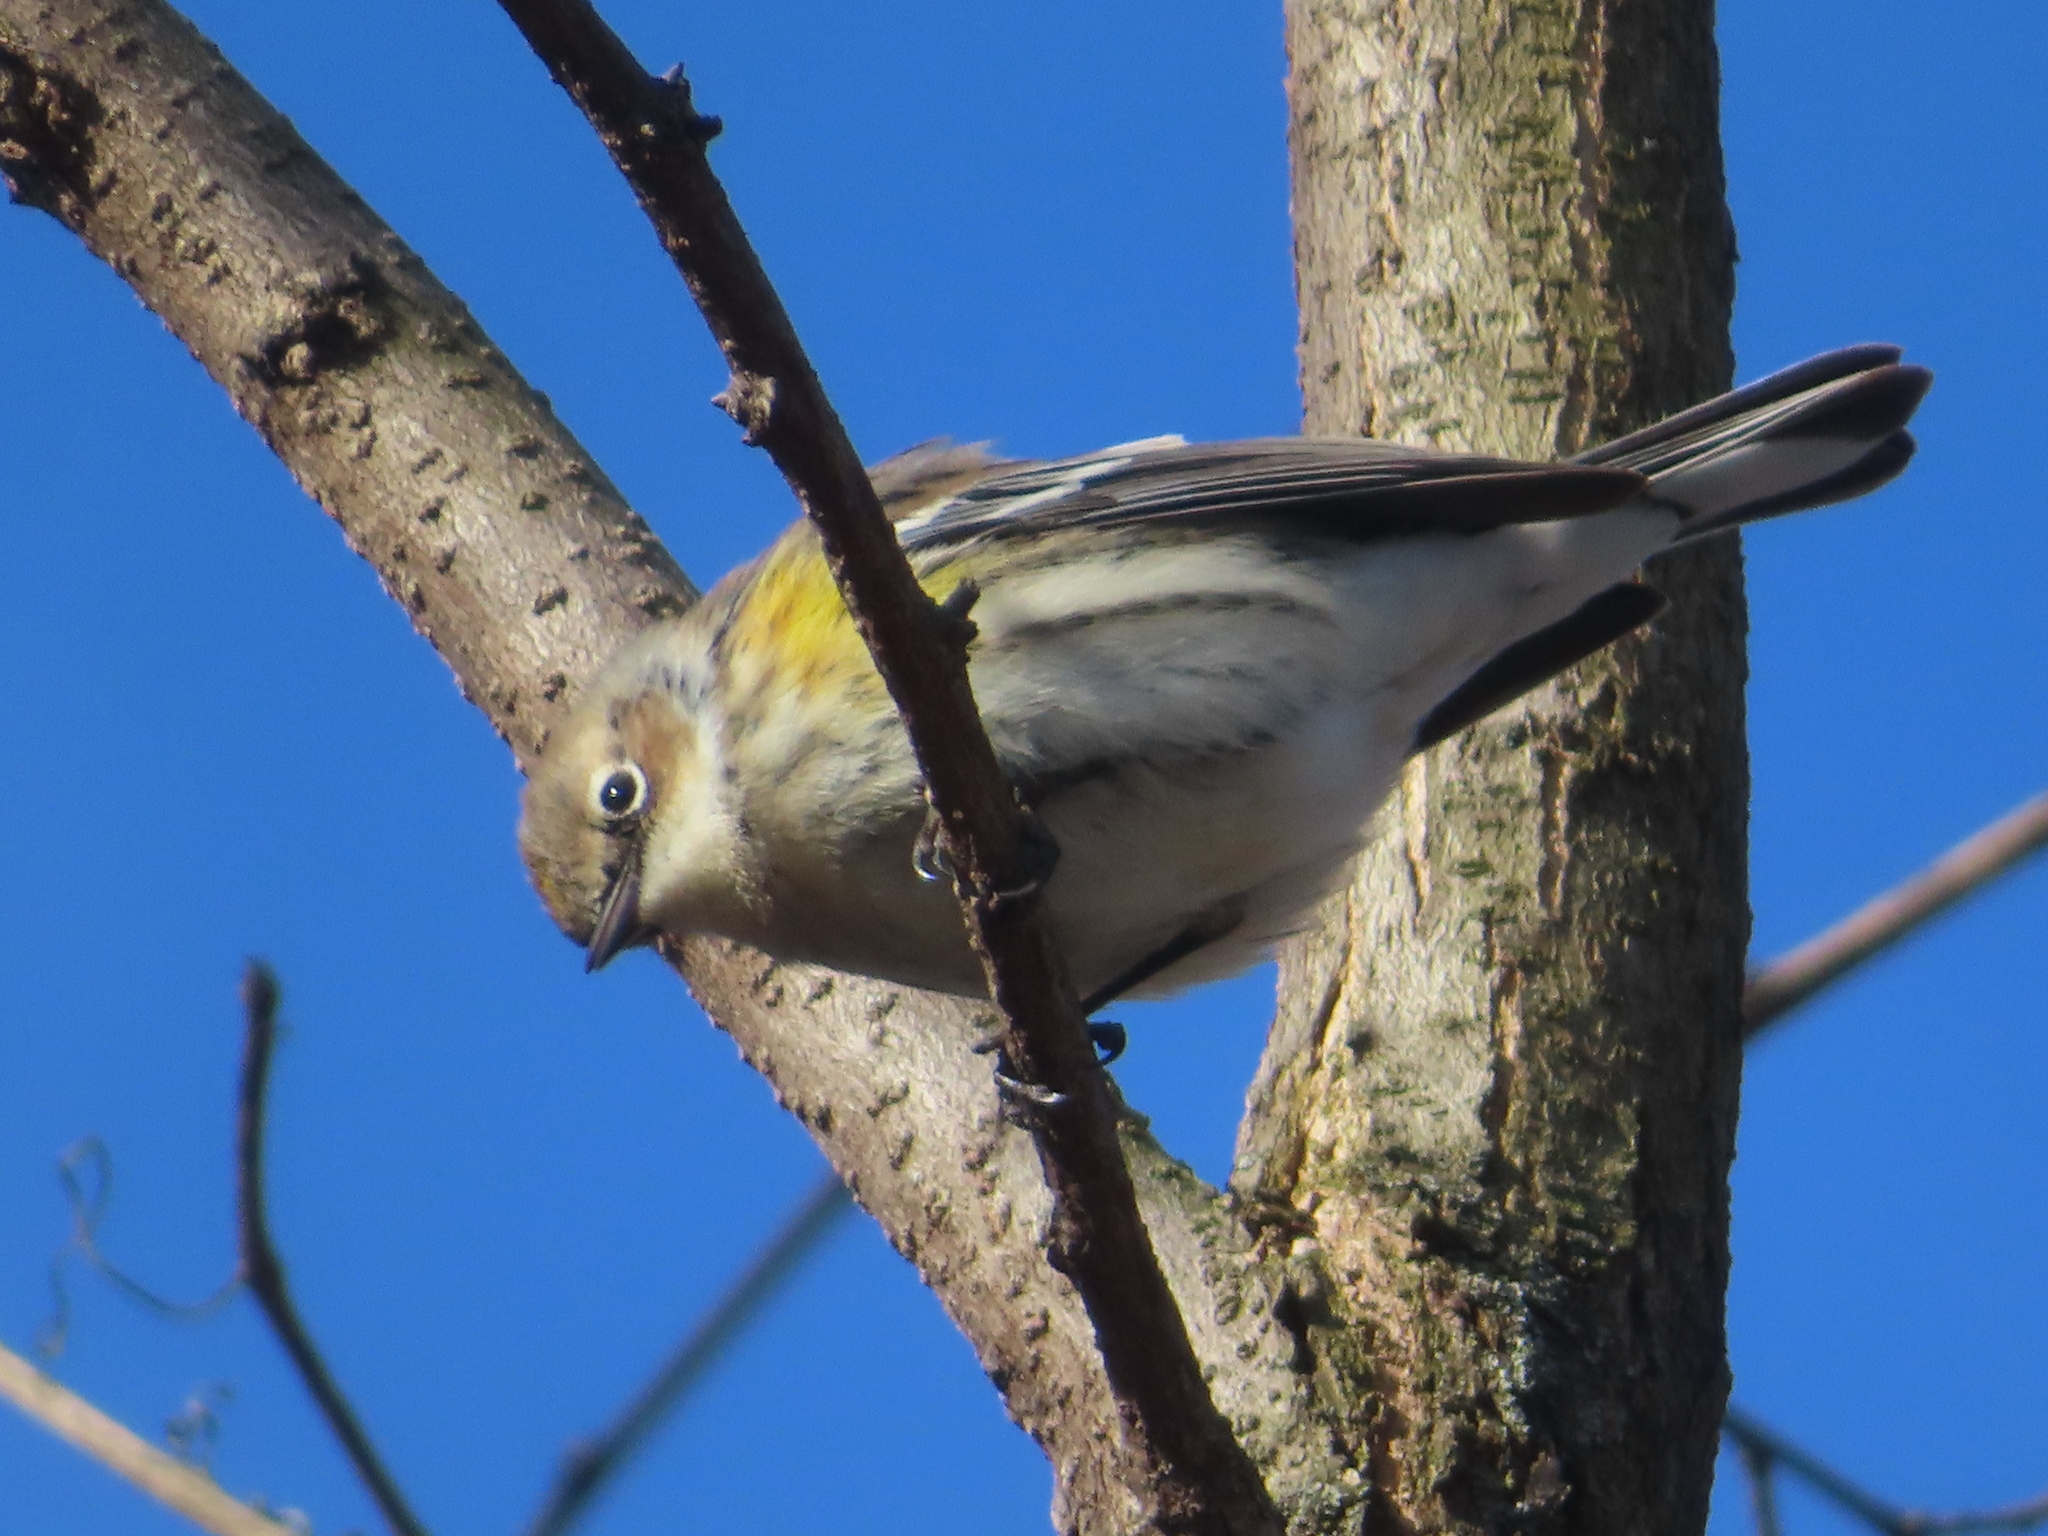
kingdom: Animalia
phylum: Chordata
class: Aves
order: Passeriformes
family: Parulidae
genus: Setophaga
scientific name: Setophaga coronata
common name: Myrtle warbler
